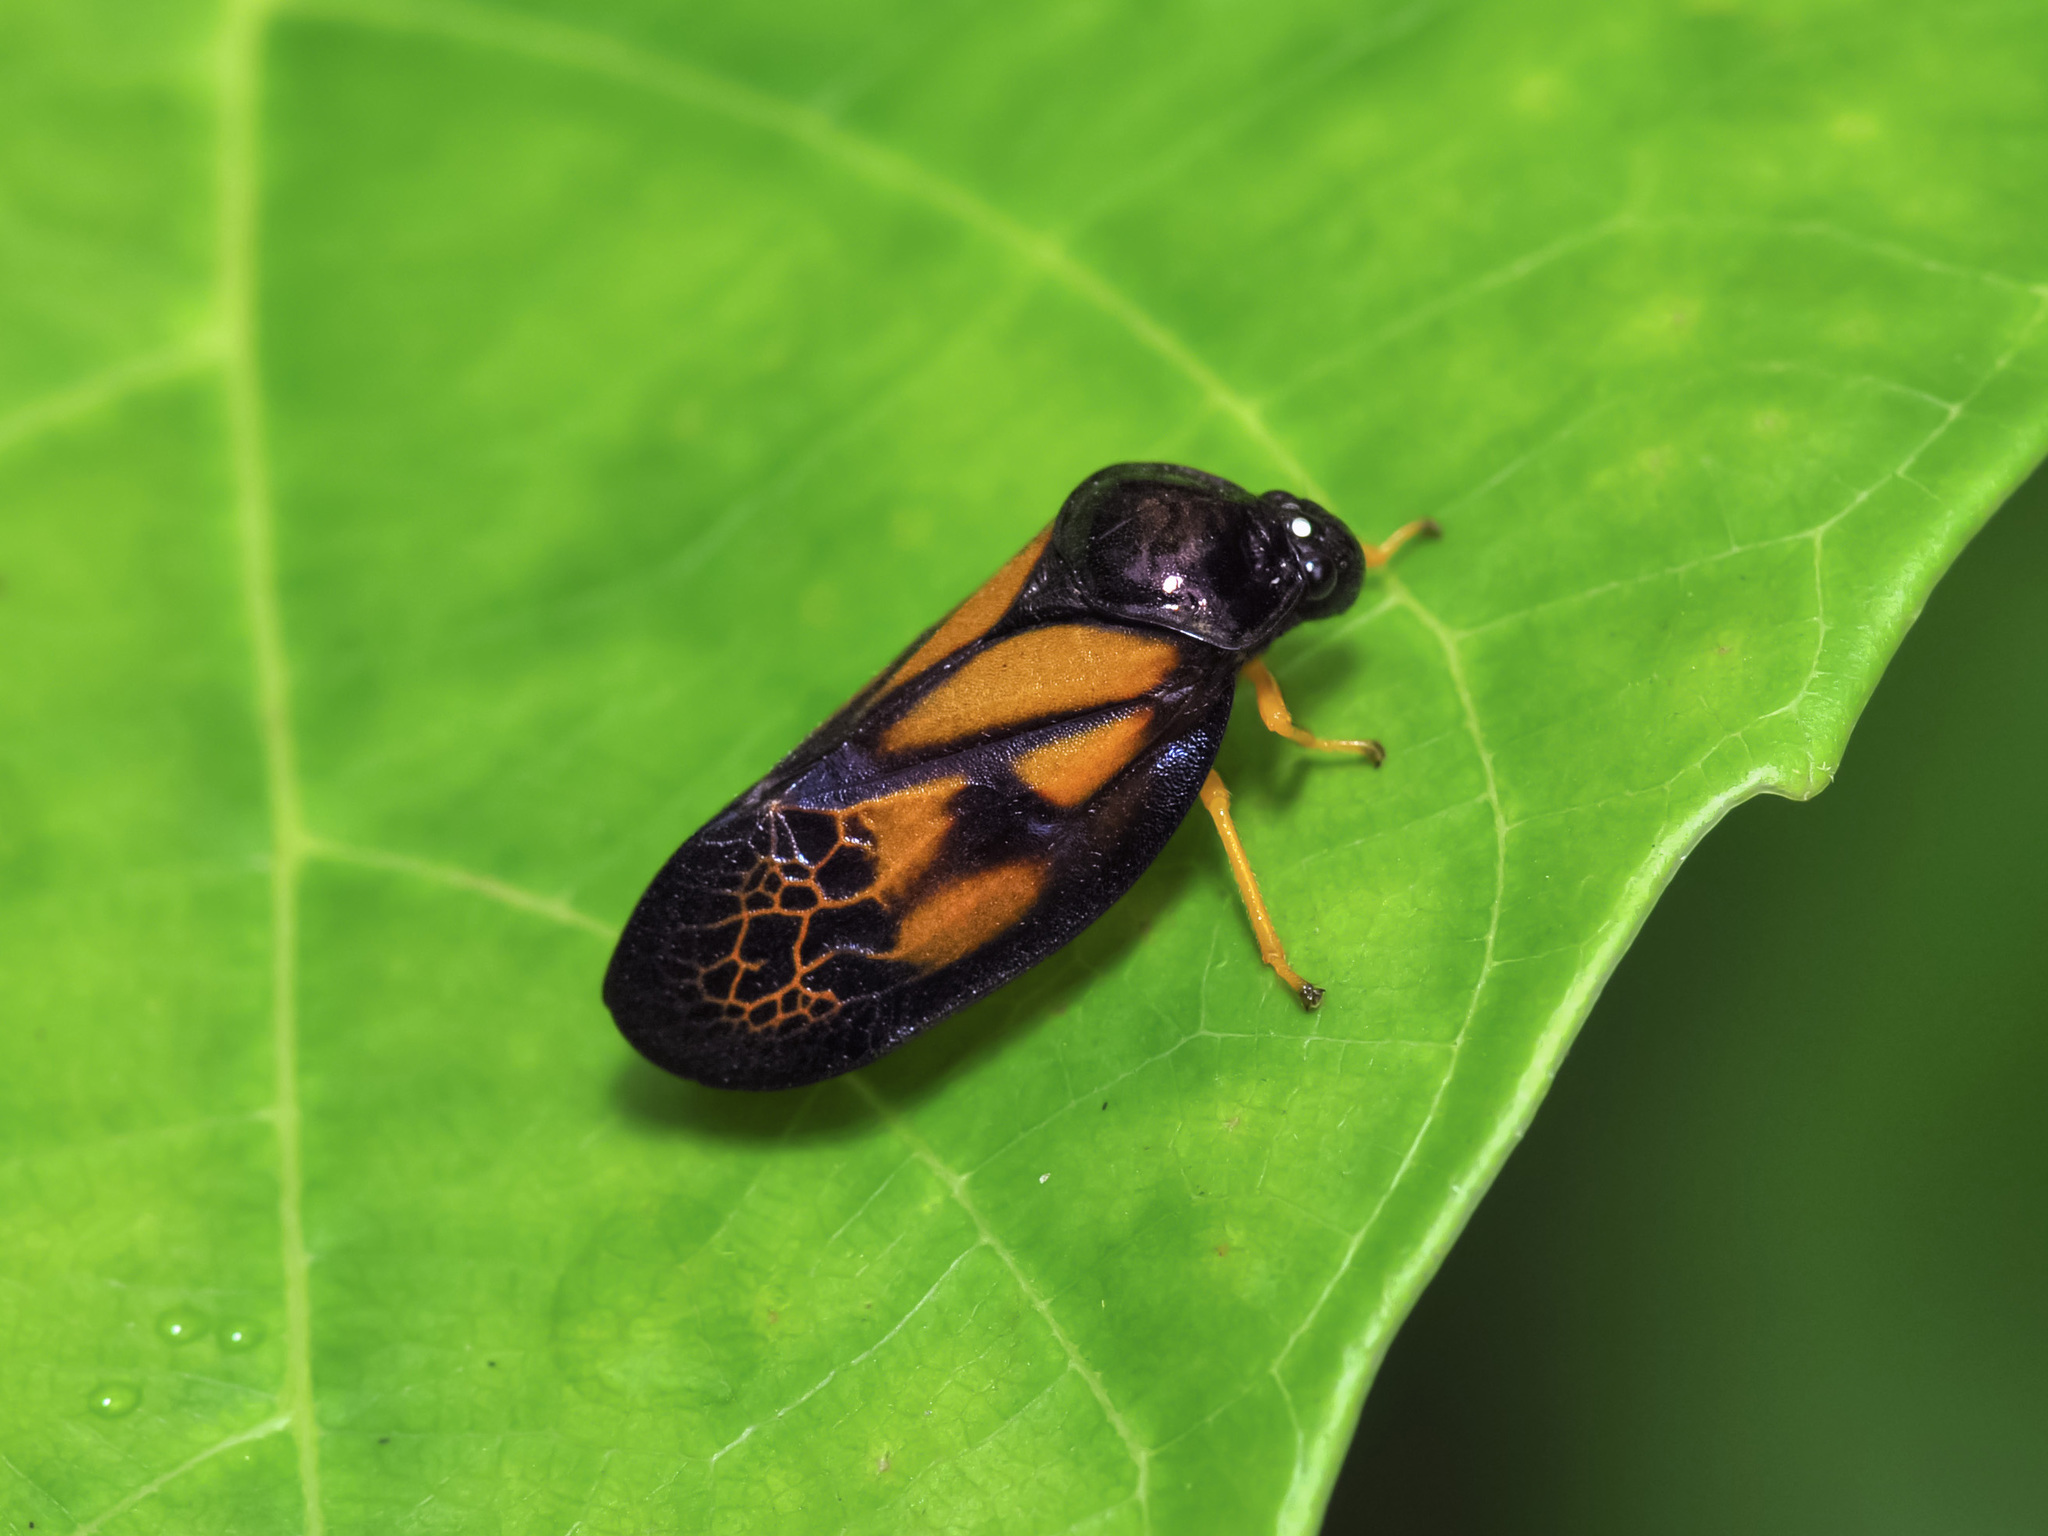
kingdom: Animalia
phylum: Arthropoda
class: Insecta
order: Hemiptera
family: Cercopidae
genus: Leptataspis
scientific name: Leptataspis perakensis
